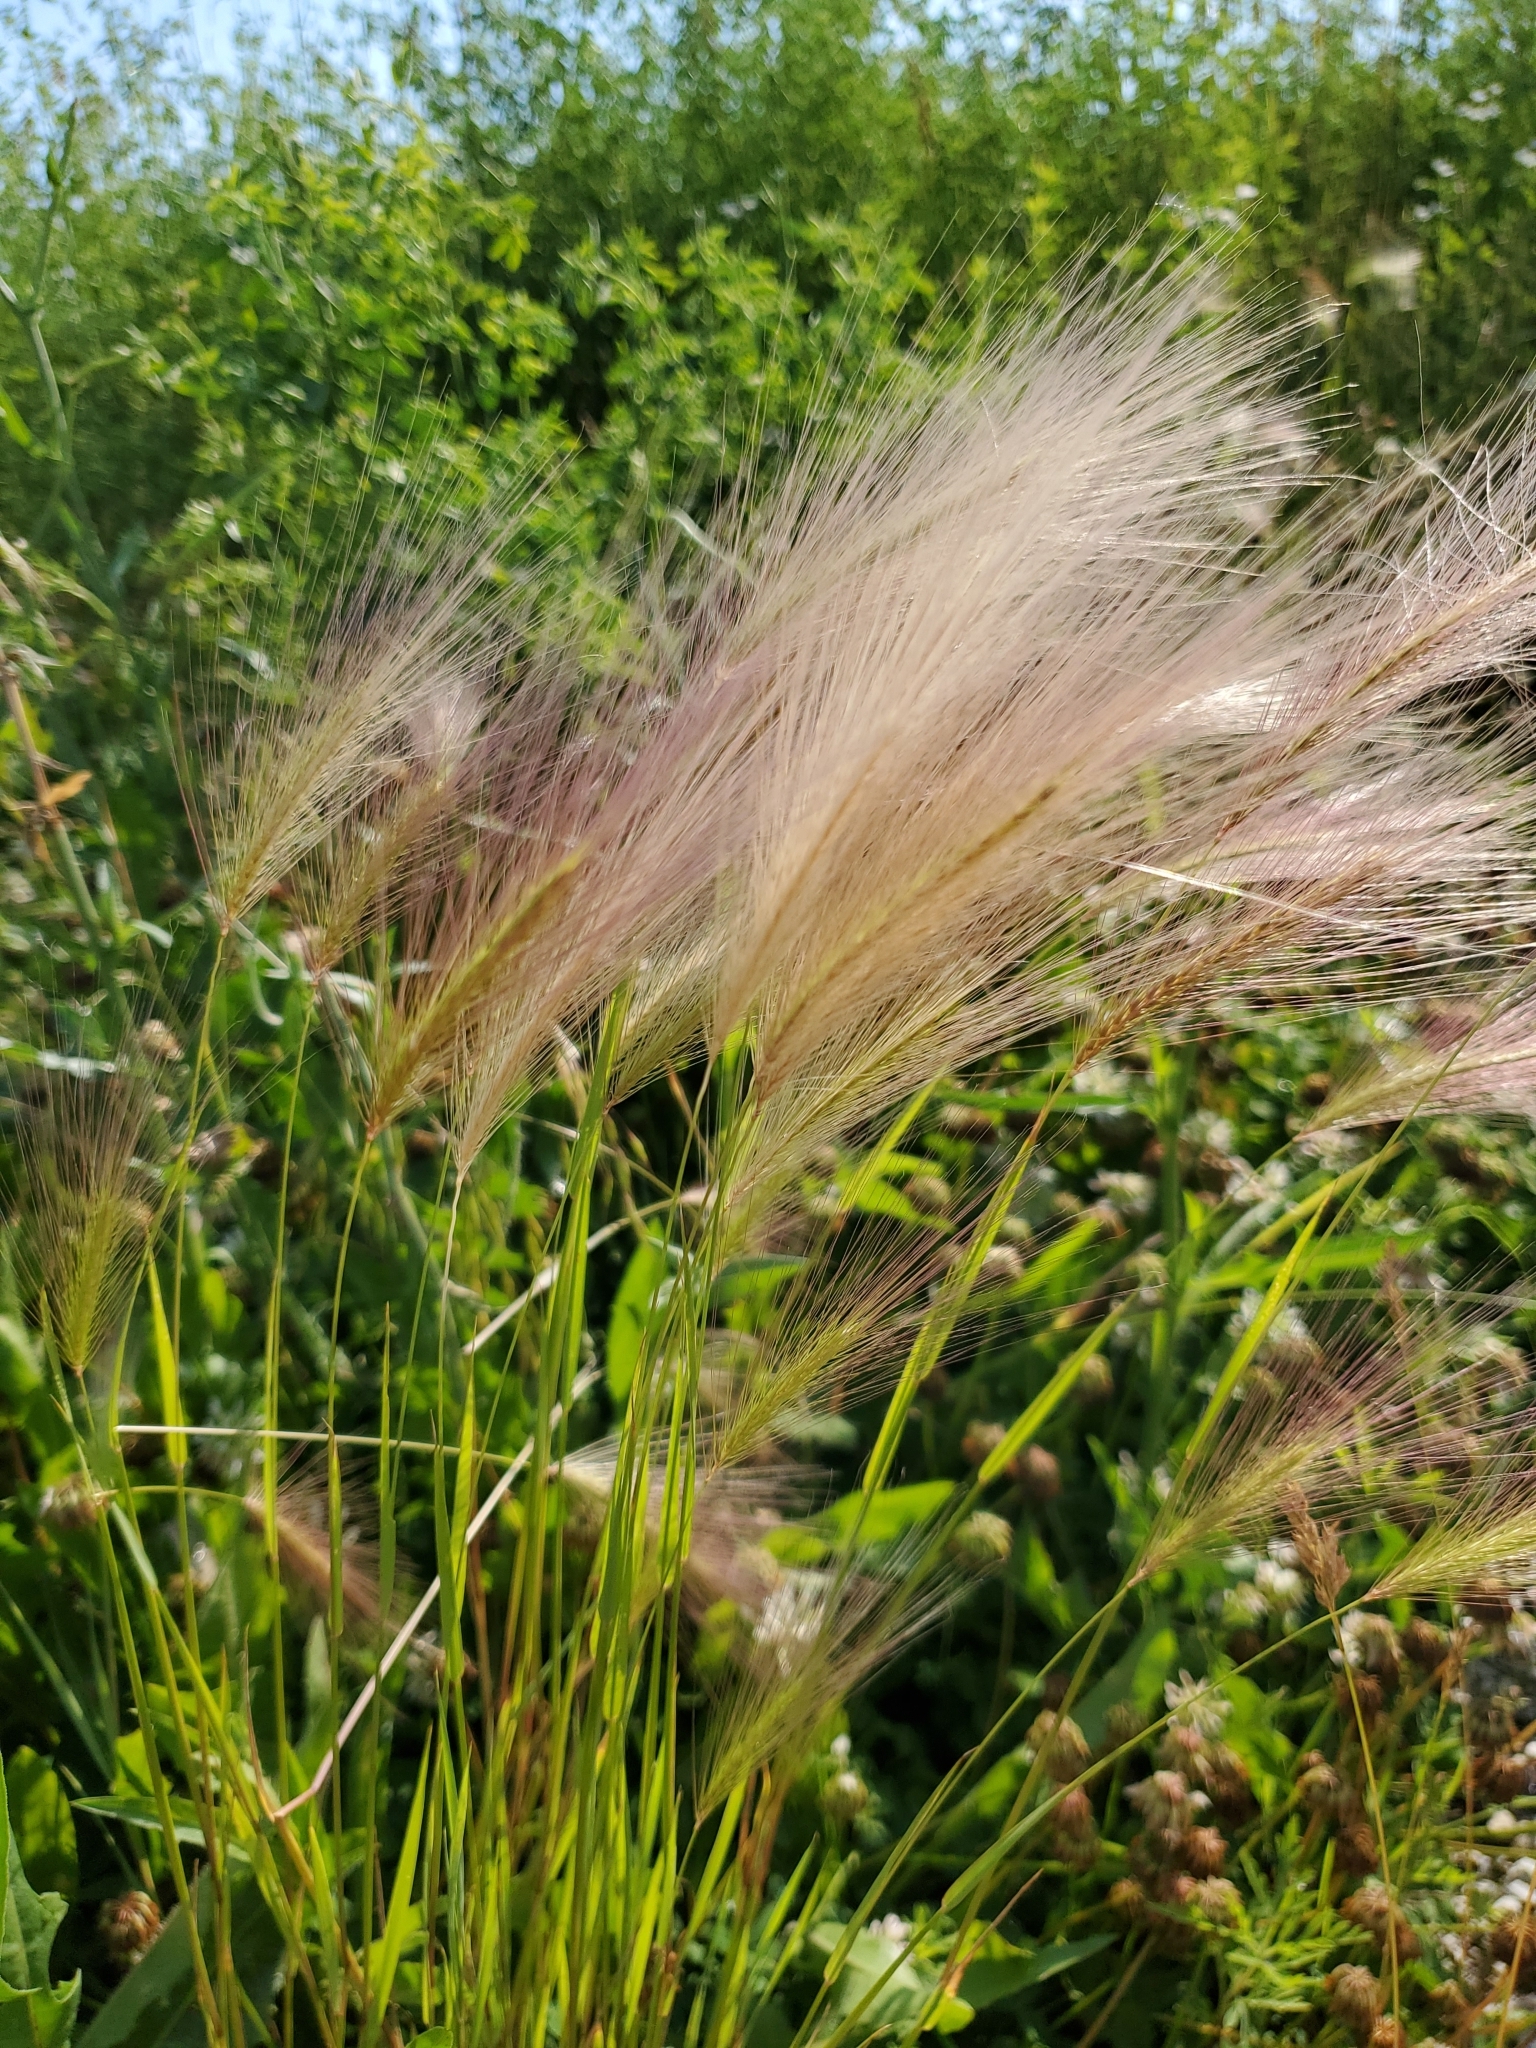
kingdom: Plantae
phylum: Tracheophyta
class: Liliopsida
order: Poales
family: Poaceae
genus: Hordeum
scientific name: Hordeum jubatum
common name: Foxtail barley
